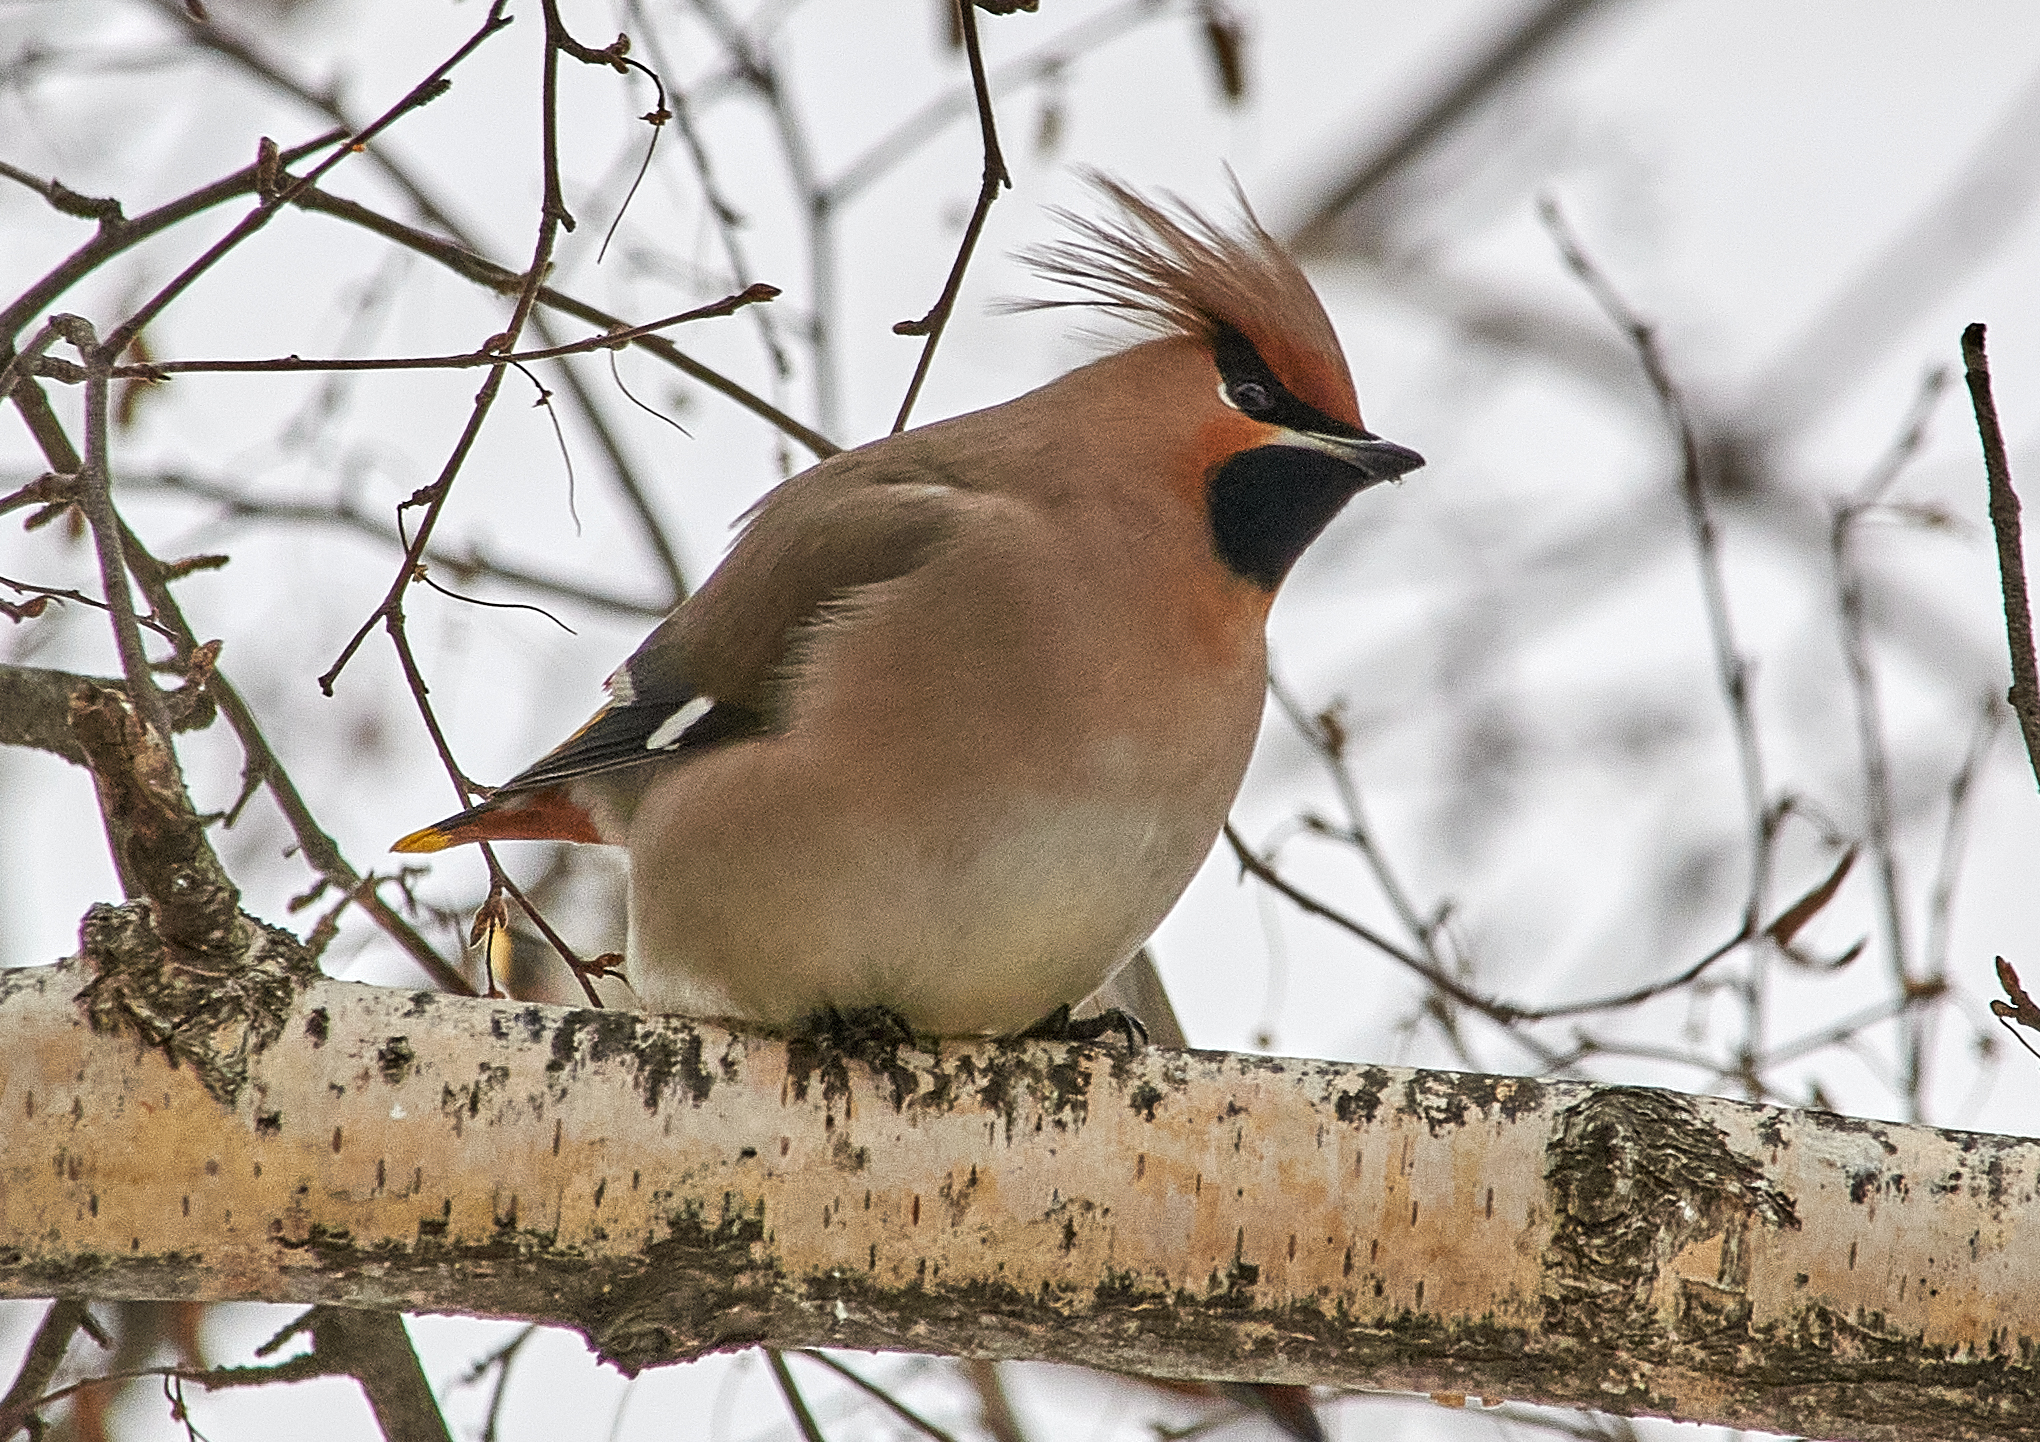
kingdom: Animalia
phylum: Chordata
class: Aves
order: Passeriformes
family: Bombycillidae
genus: Bombycilla
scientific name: Bombycilla garrulus
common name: Bohemian waxwing
